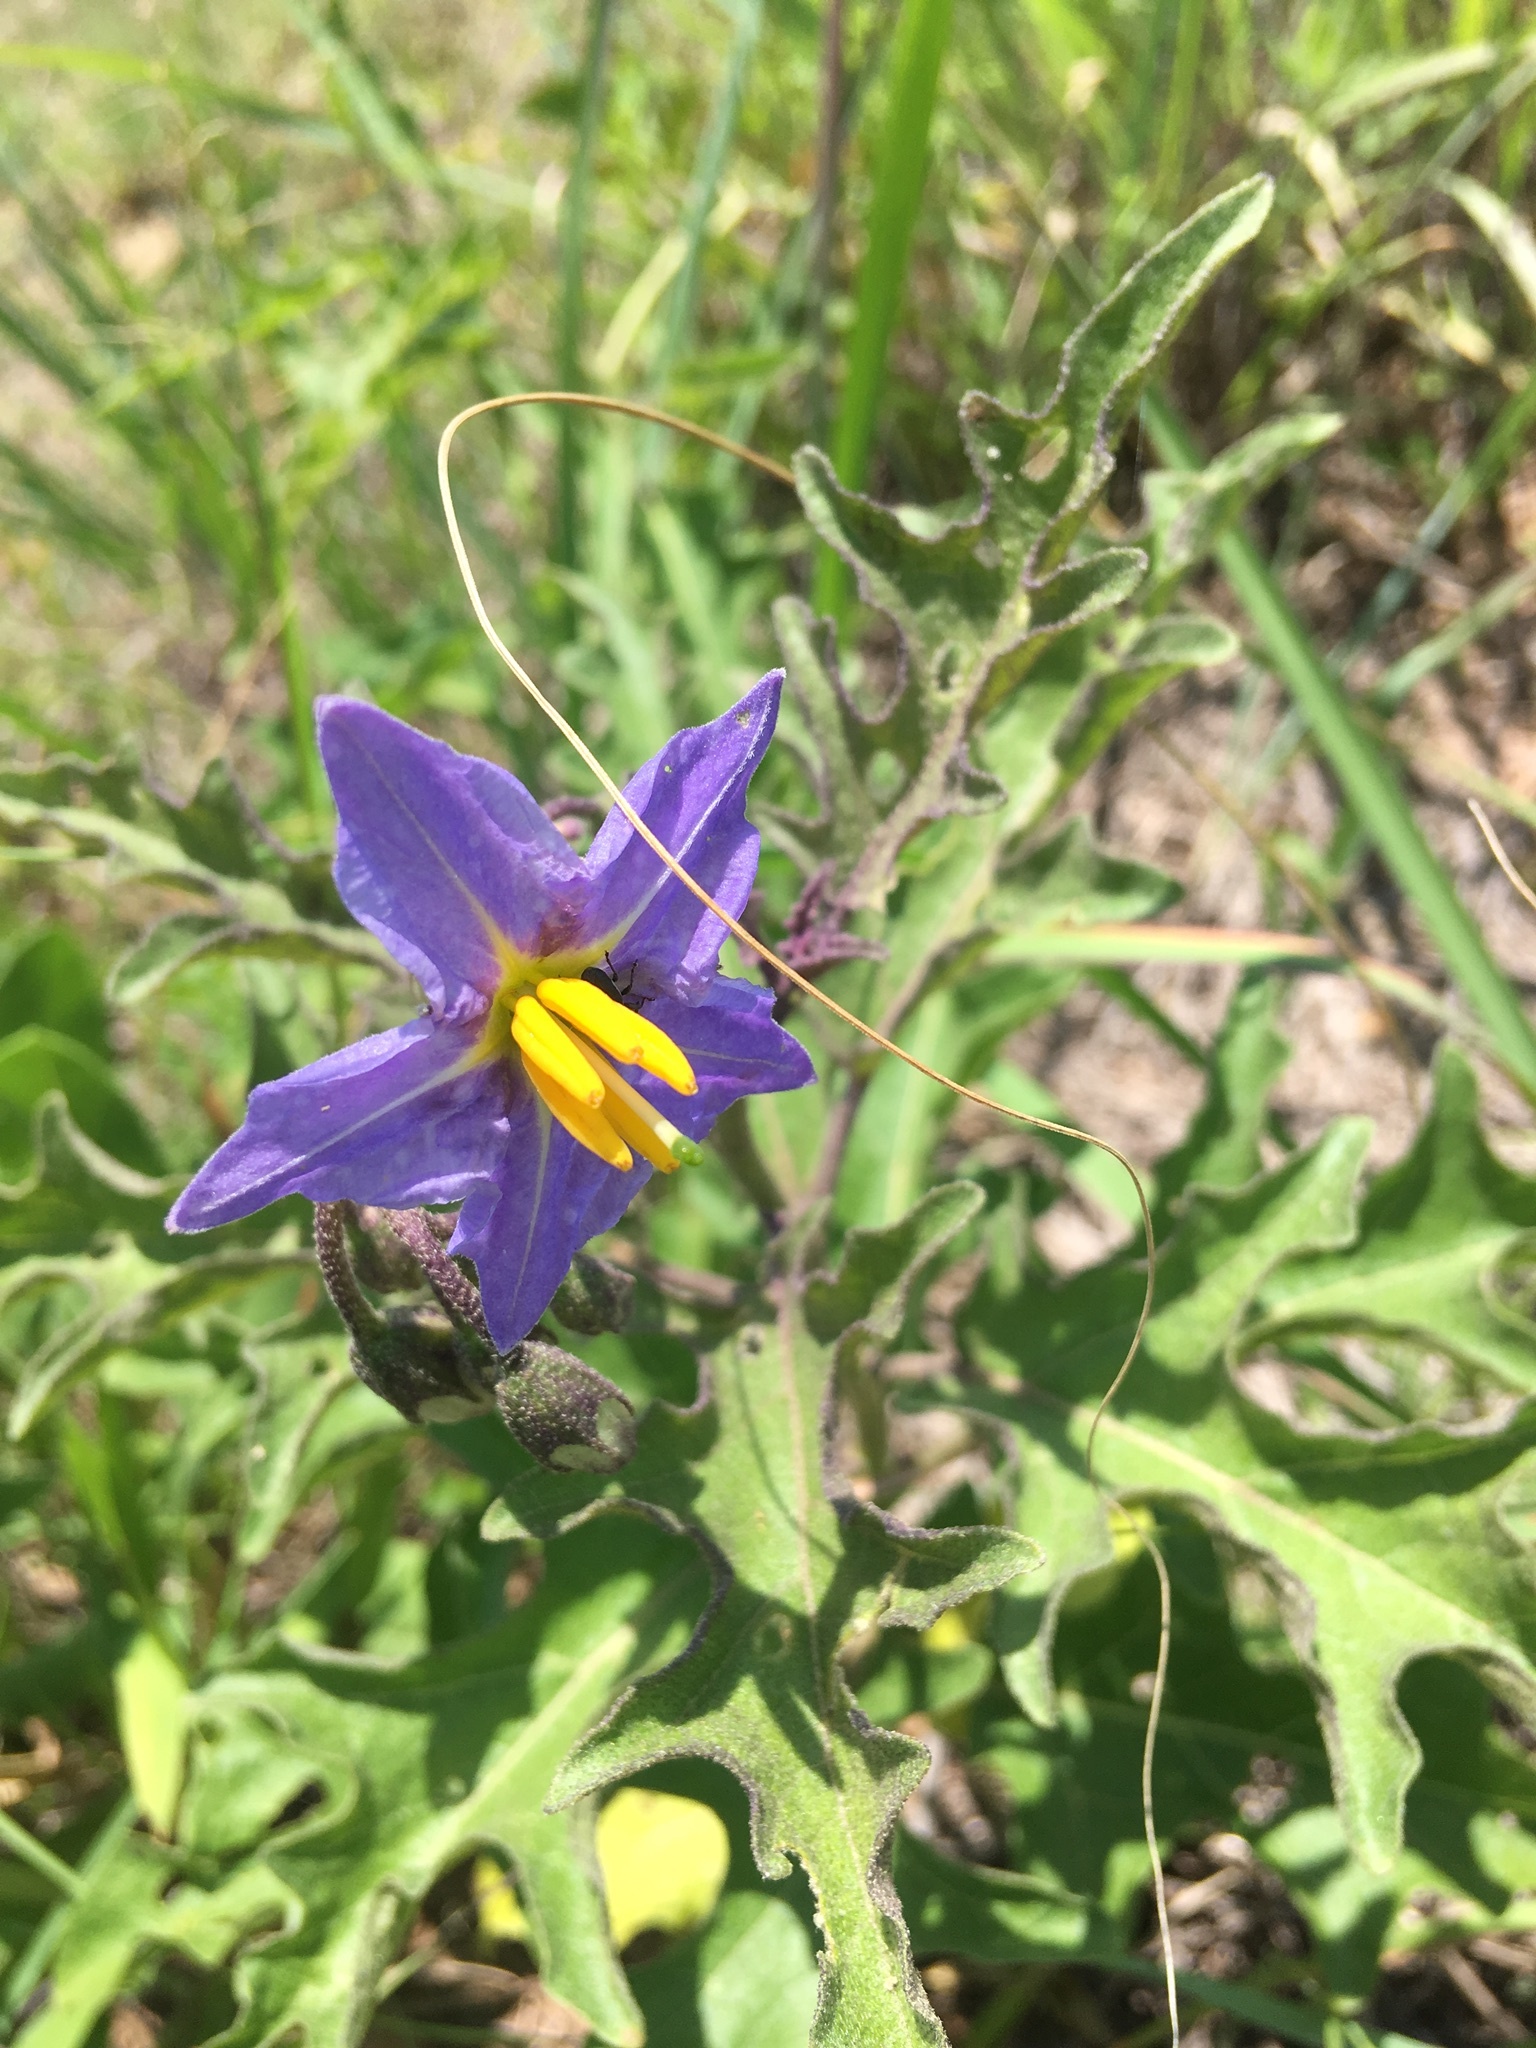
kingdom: Plantae
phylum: Tracheophyta
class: Magnoliopsida
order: Solanales
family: Solanaceae
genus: Solanum
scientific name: Solanum dimidiatum
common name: Carolina horse-nettle
